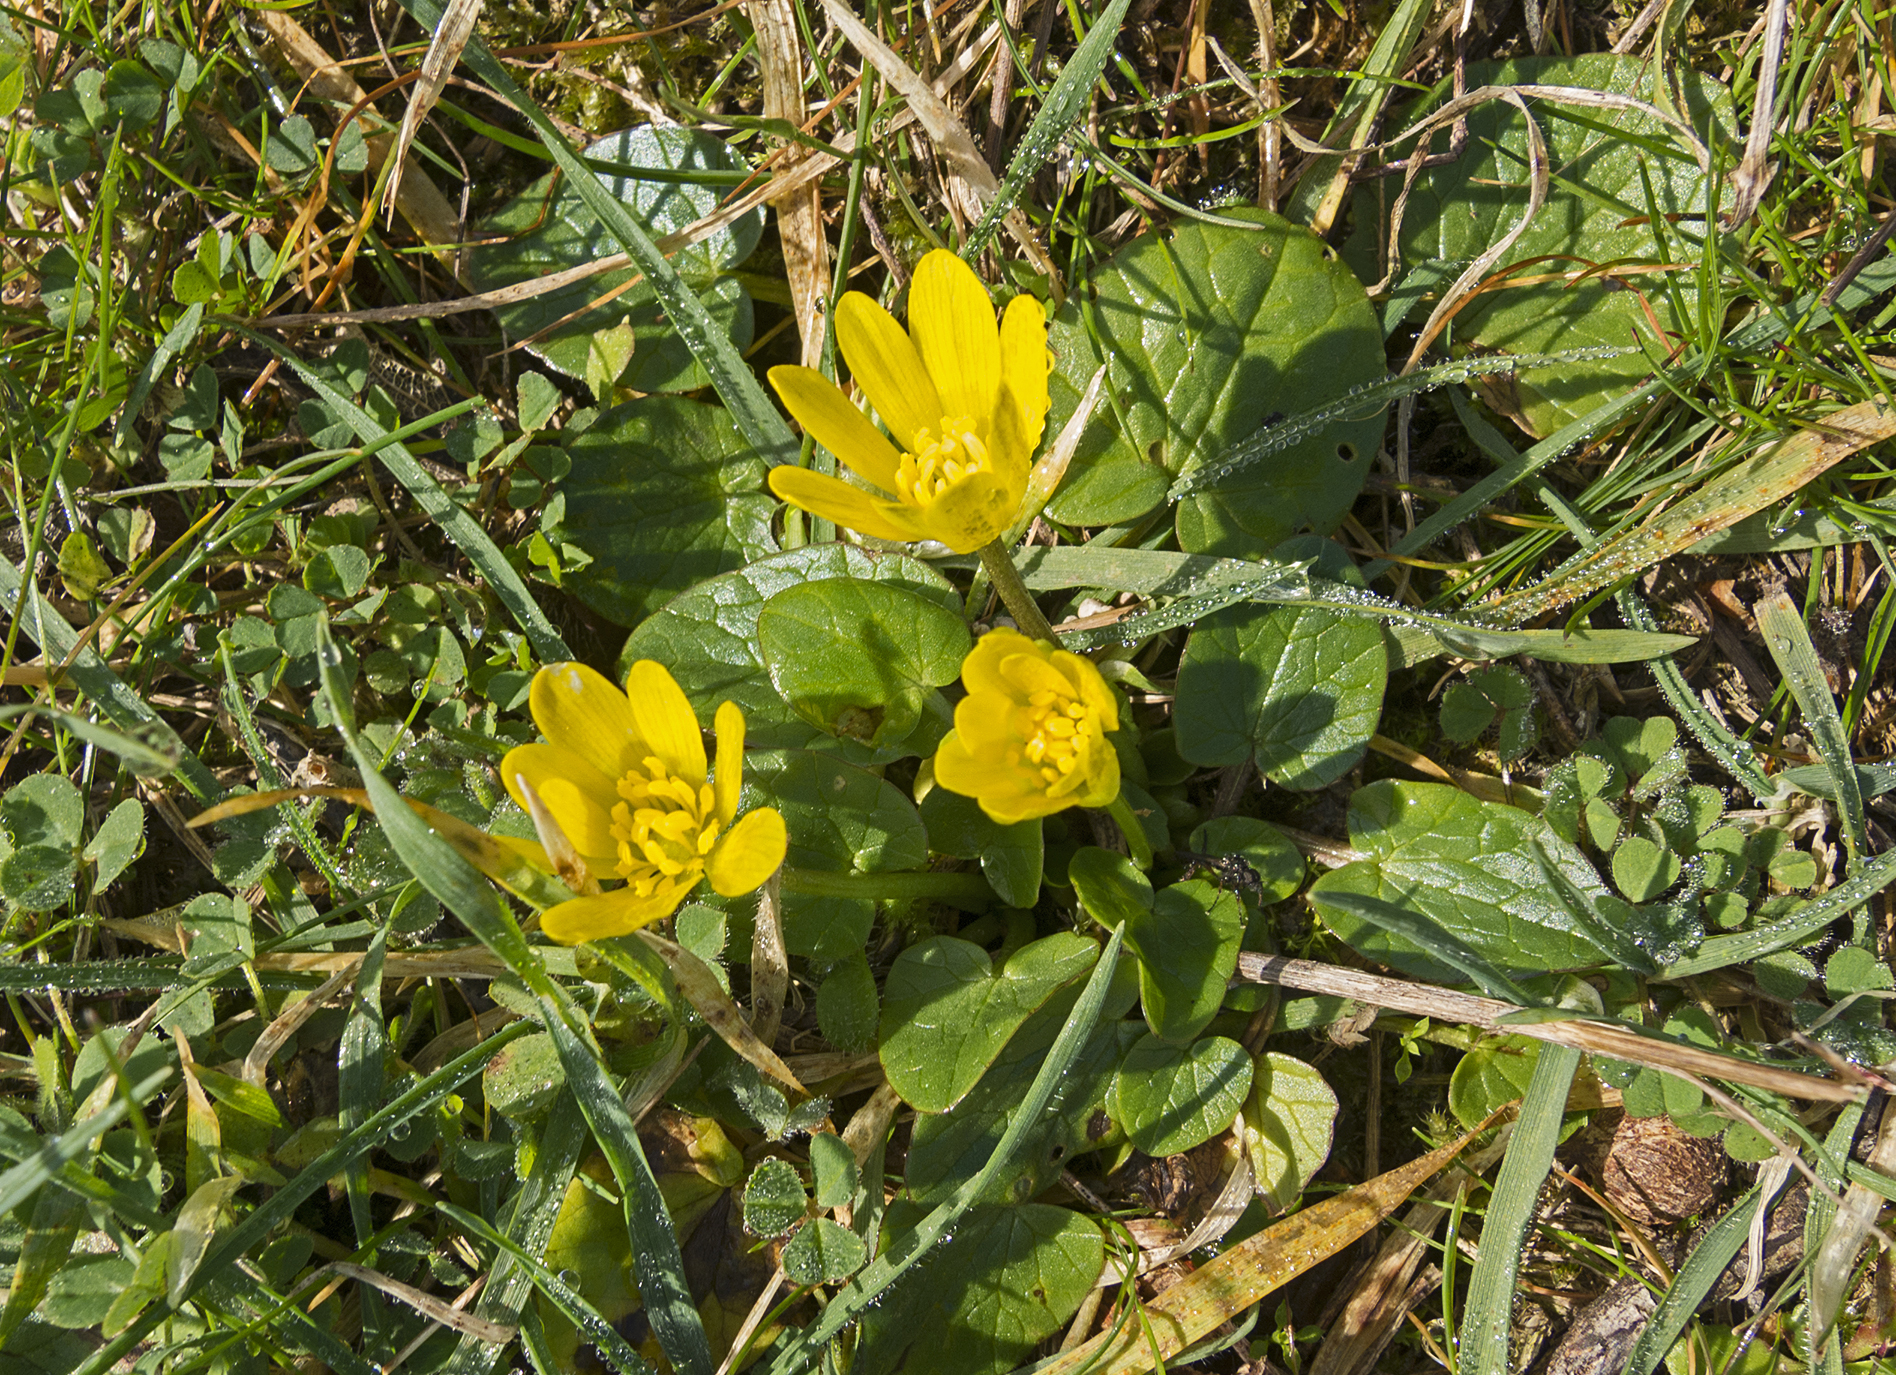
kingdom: Plantae
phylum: Tracheophyta
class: Magnoliopsida
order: Ranunculales
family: Ranunculaceae
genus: Ficaria
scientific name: Ficaria verna
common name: Lesser celandine
